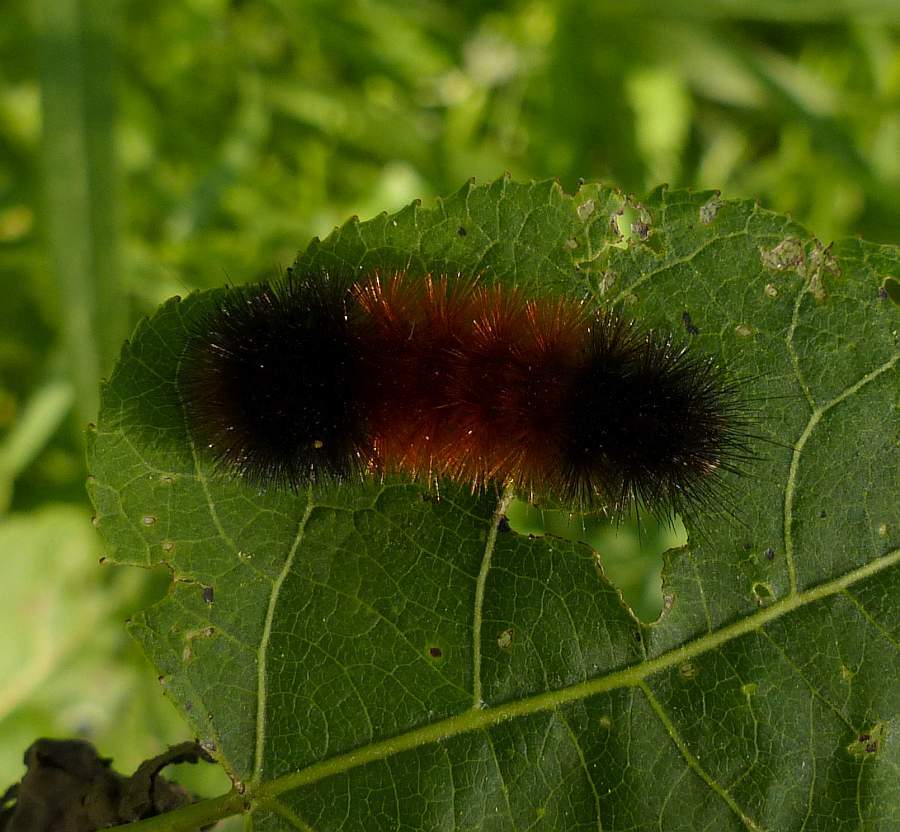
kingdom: Animalia
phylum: Arthropoda
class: Insecta
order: Lepidoptera
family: Erebidae
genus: Pyrrharctia
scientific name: Pyrrharctia isabella
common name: Isabella tiger moth
